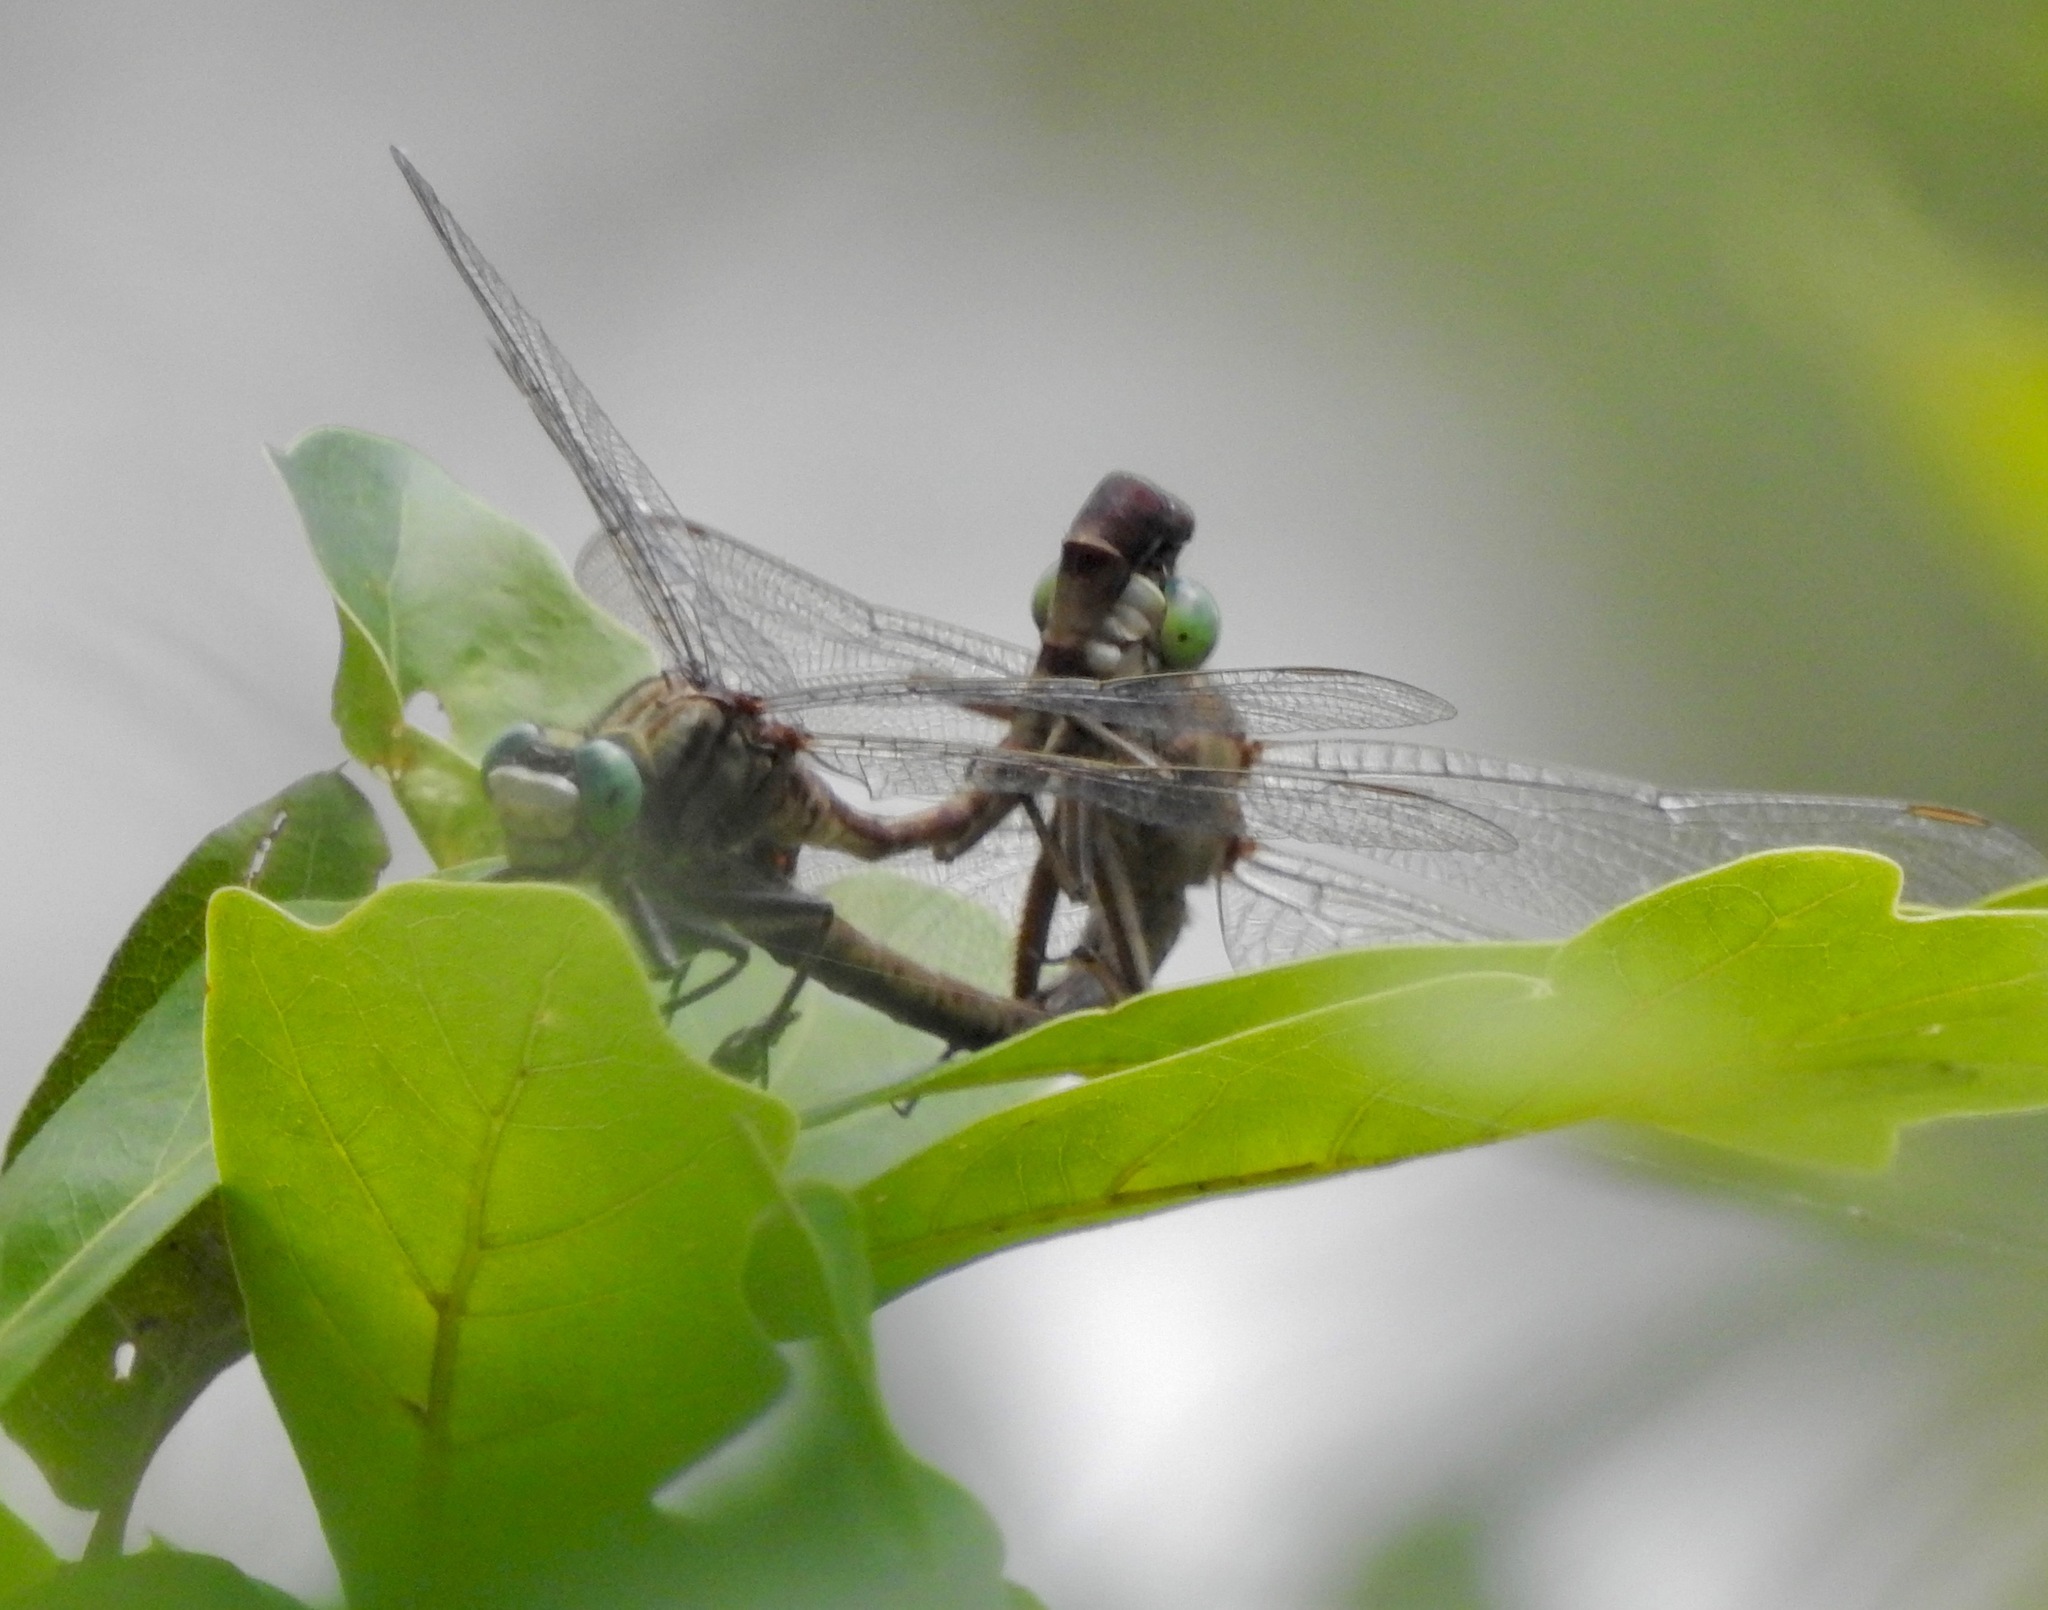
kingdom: Animalia
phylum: Arthropoda
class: Insecta
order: Odonata
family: Gomphidae
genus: Arigomphus
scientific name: Arigomphus pallidus
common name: Gray-green clubtail
